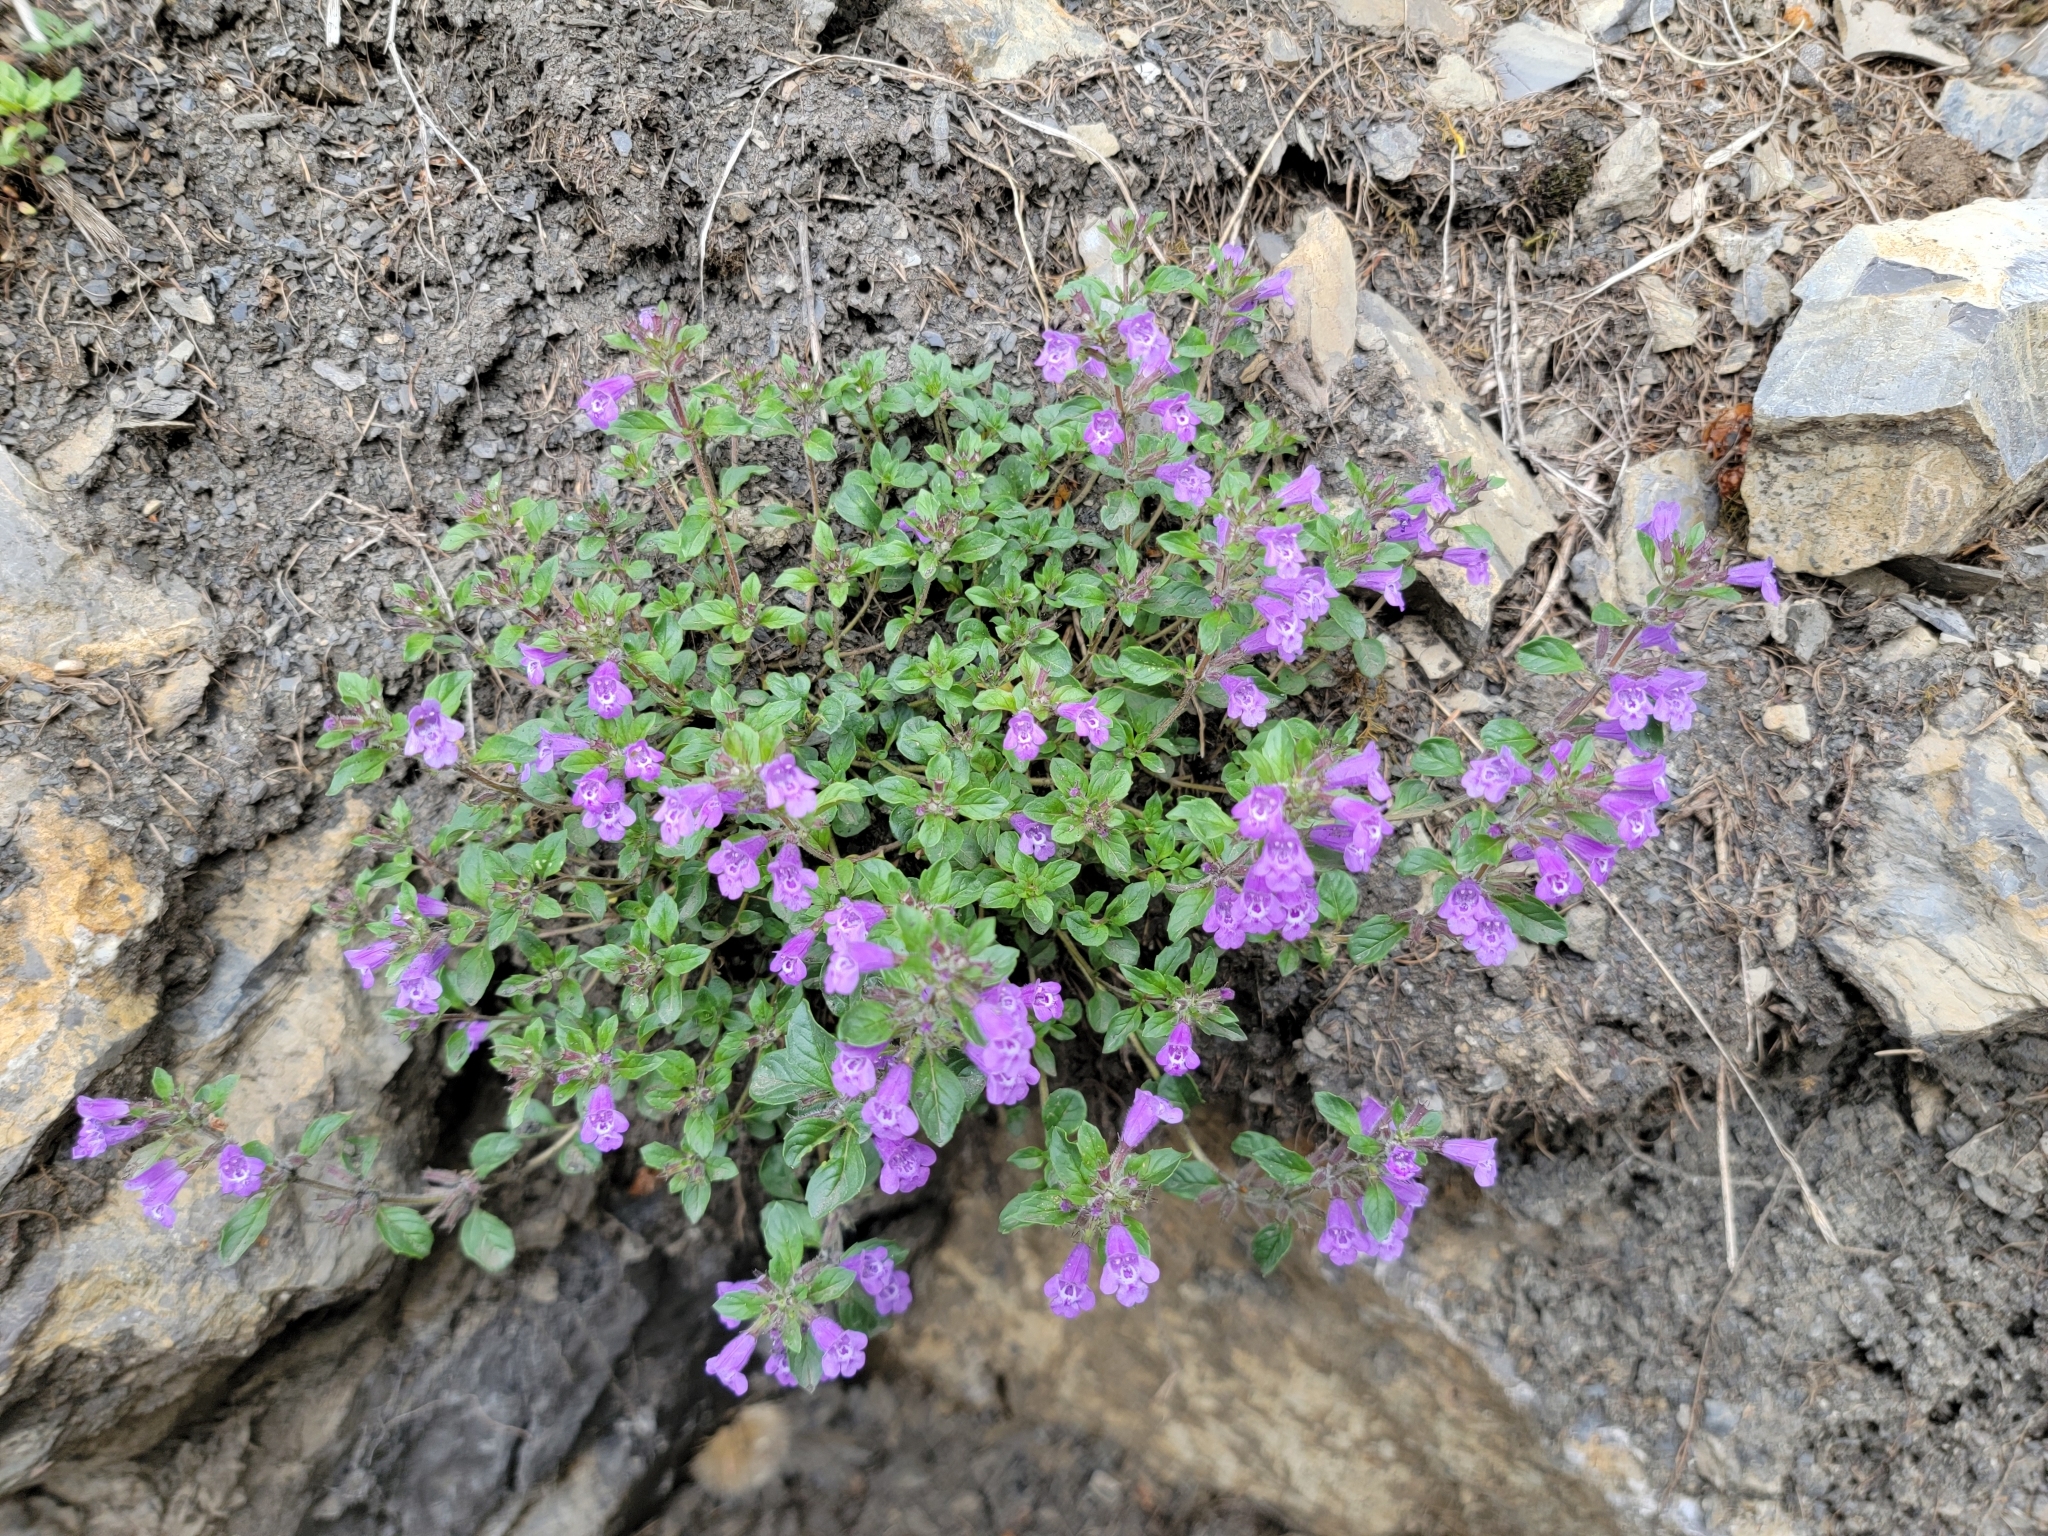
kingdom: Plantae
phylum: Tracheophyta
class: Magnoliopsida
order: Lamiales
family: Lamiaceae
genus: Clinopodium
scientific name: Clinopodium alpinum
